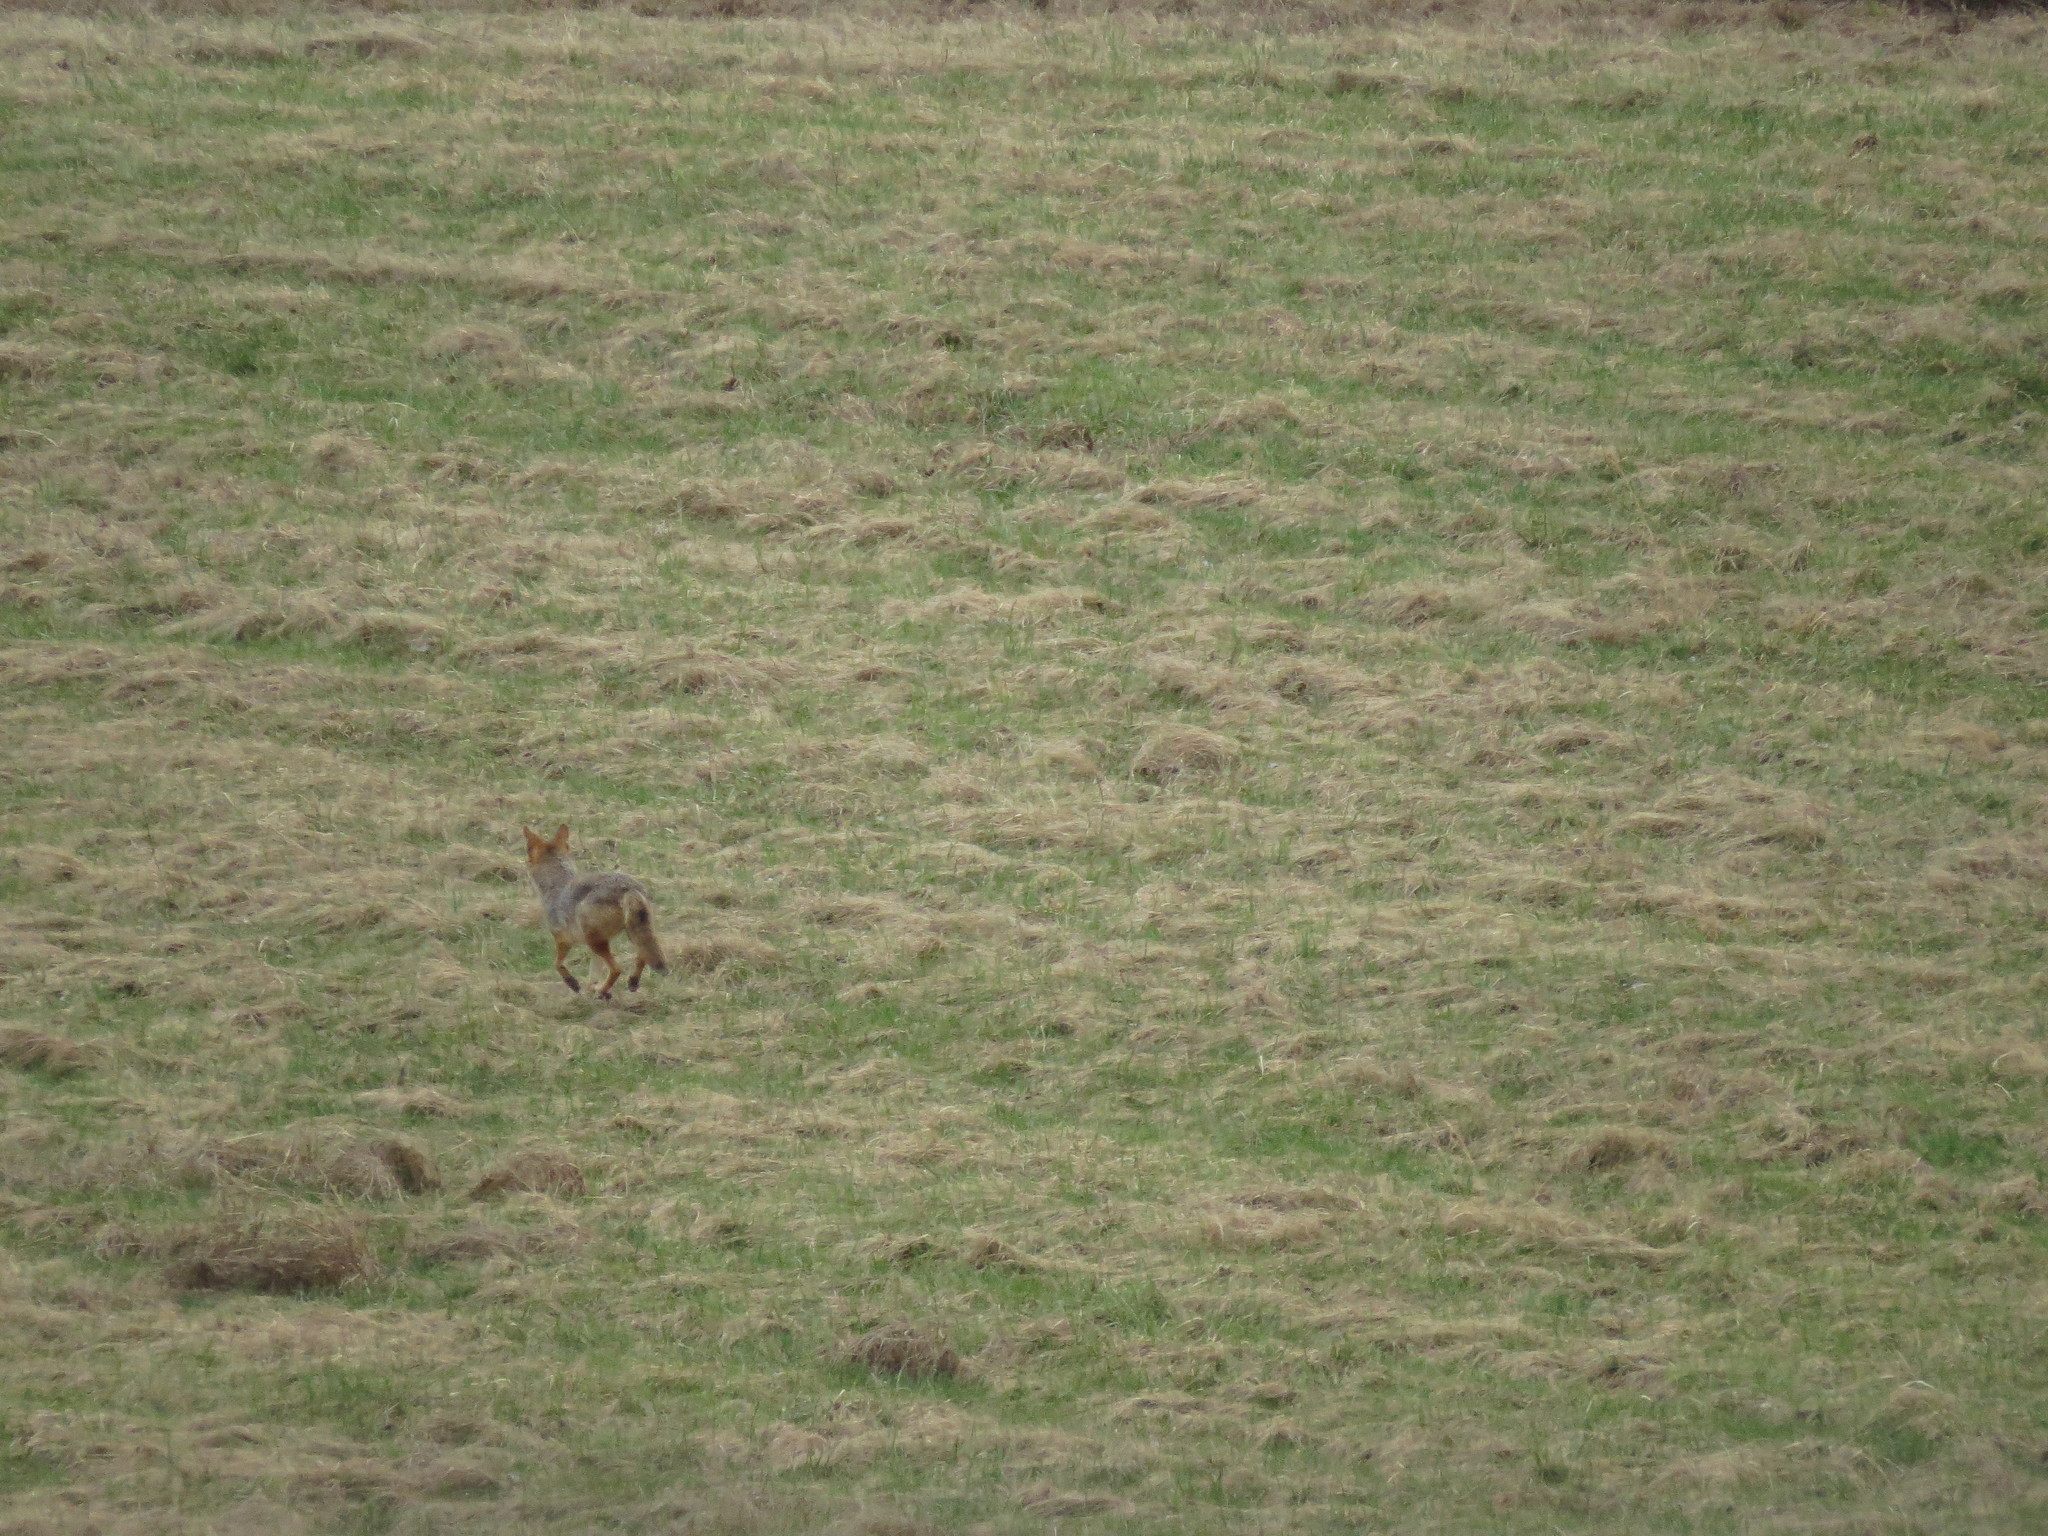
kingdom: Animalia
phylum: Chordata
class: Mammalia
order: Carnivora
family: Canidae
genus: Canis
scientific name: Canis latrans
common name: Coyote
